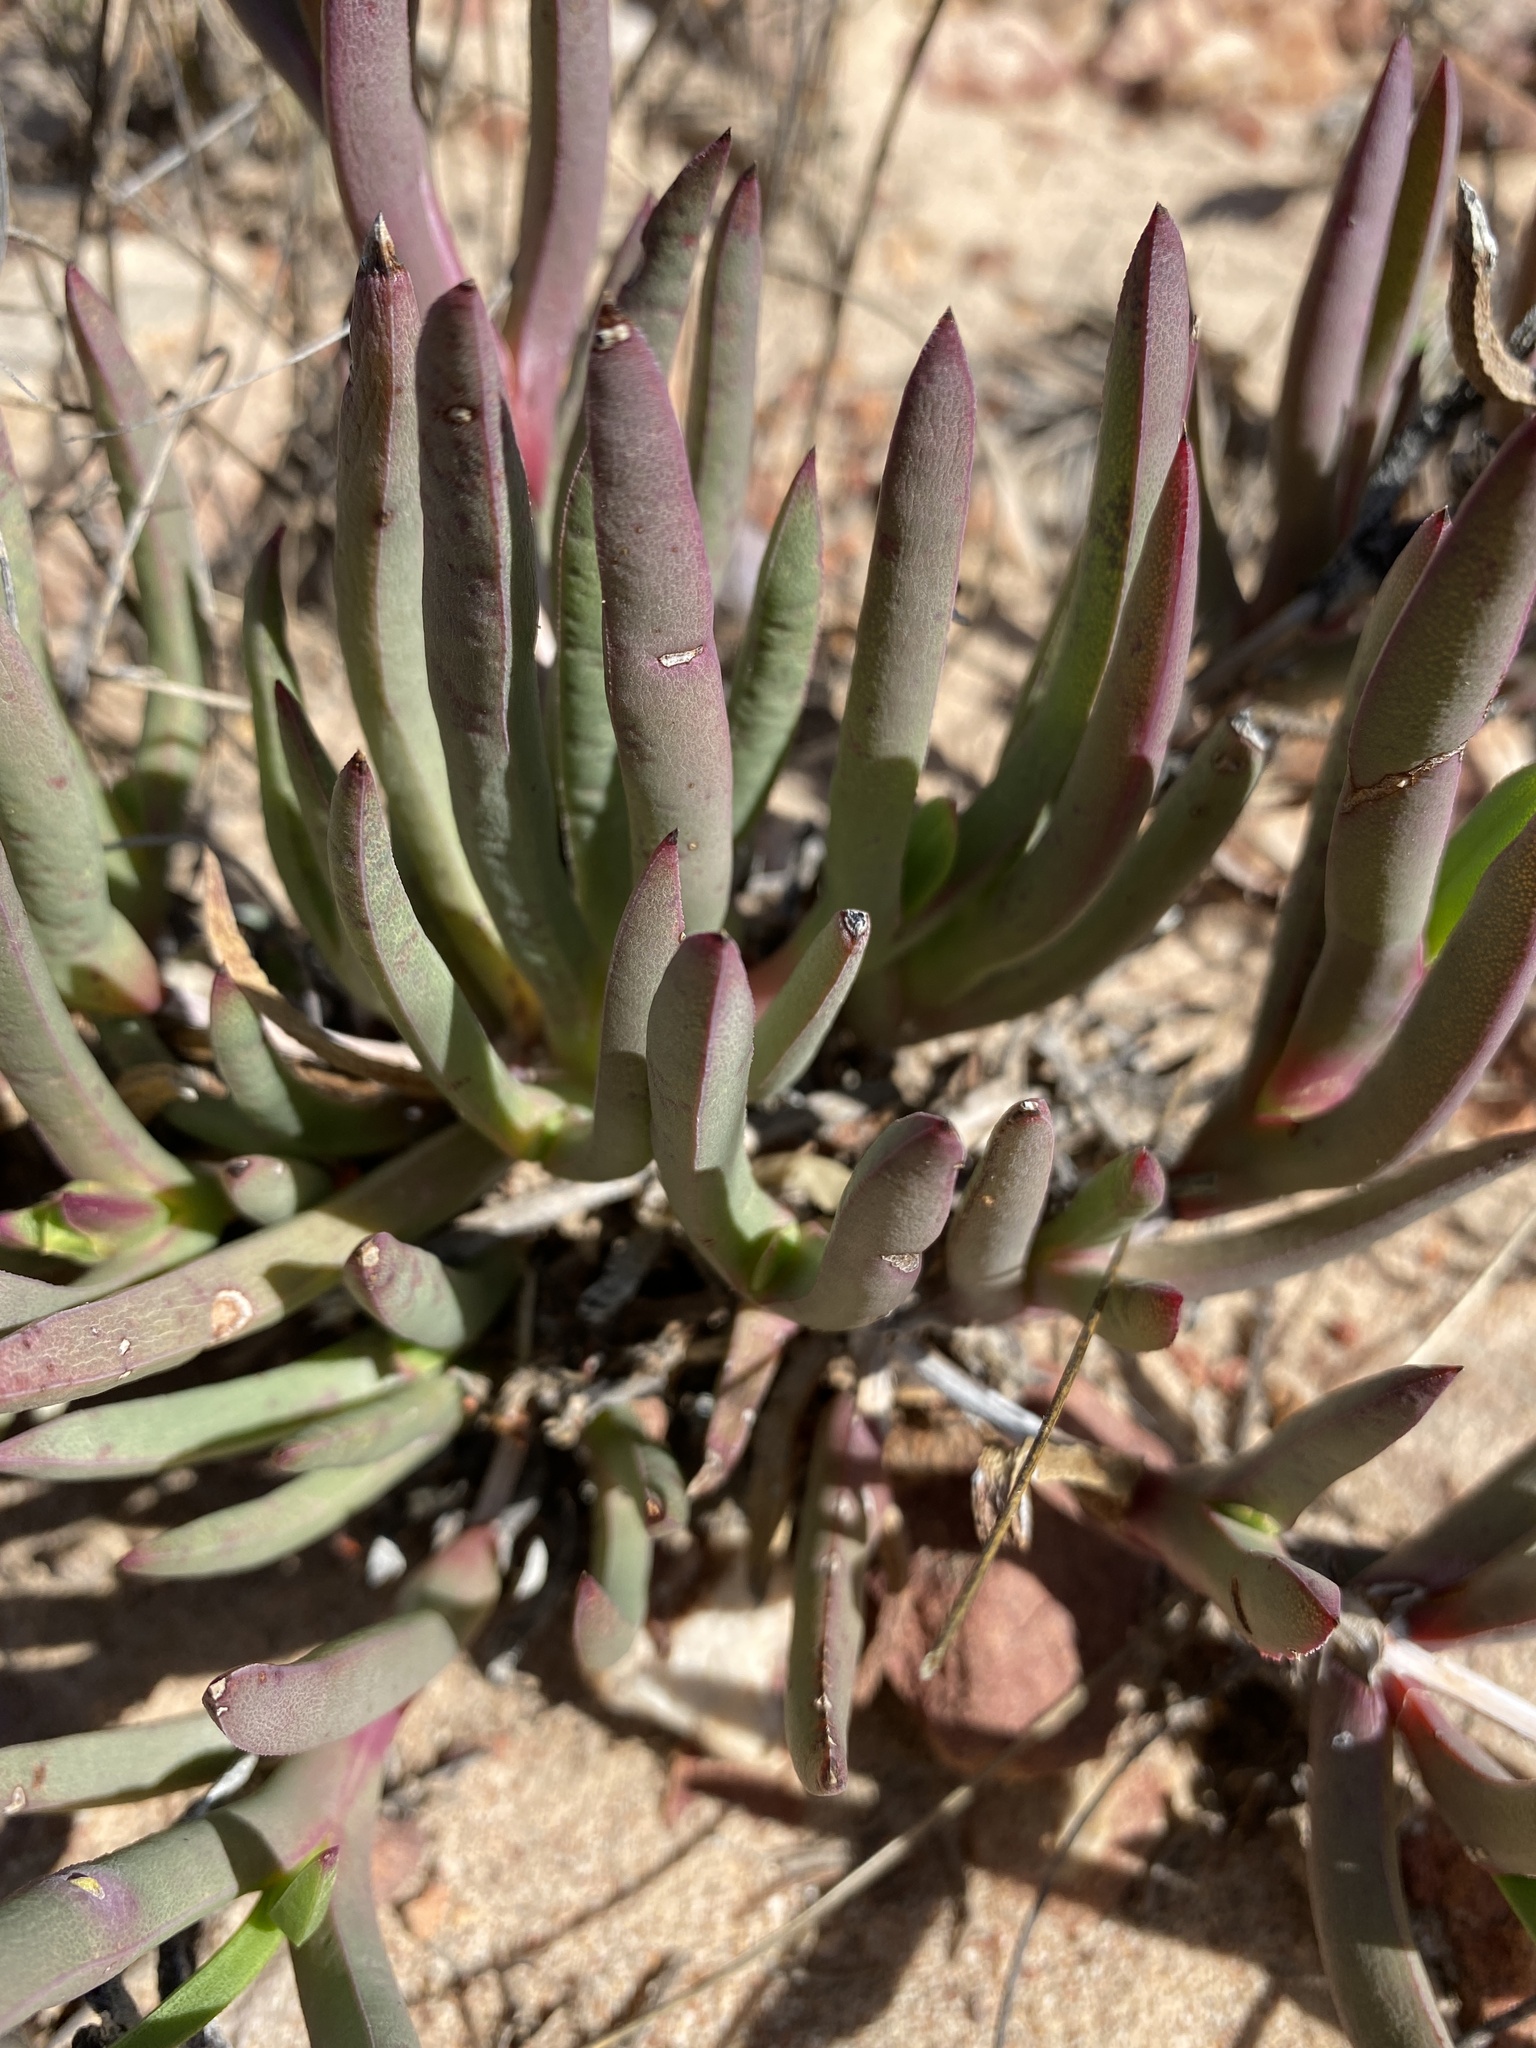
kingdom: Plantae
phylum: Tracheophyta
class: Magnoliopsida
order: Caryophyllales
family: Aizoaceae
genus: Ruschia
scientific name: Ruschia tardissima
